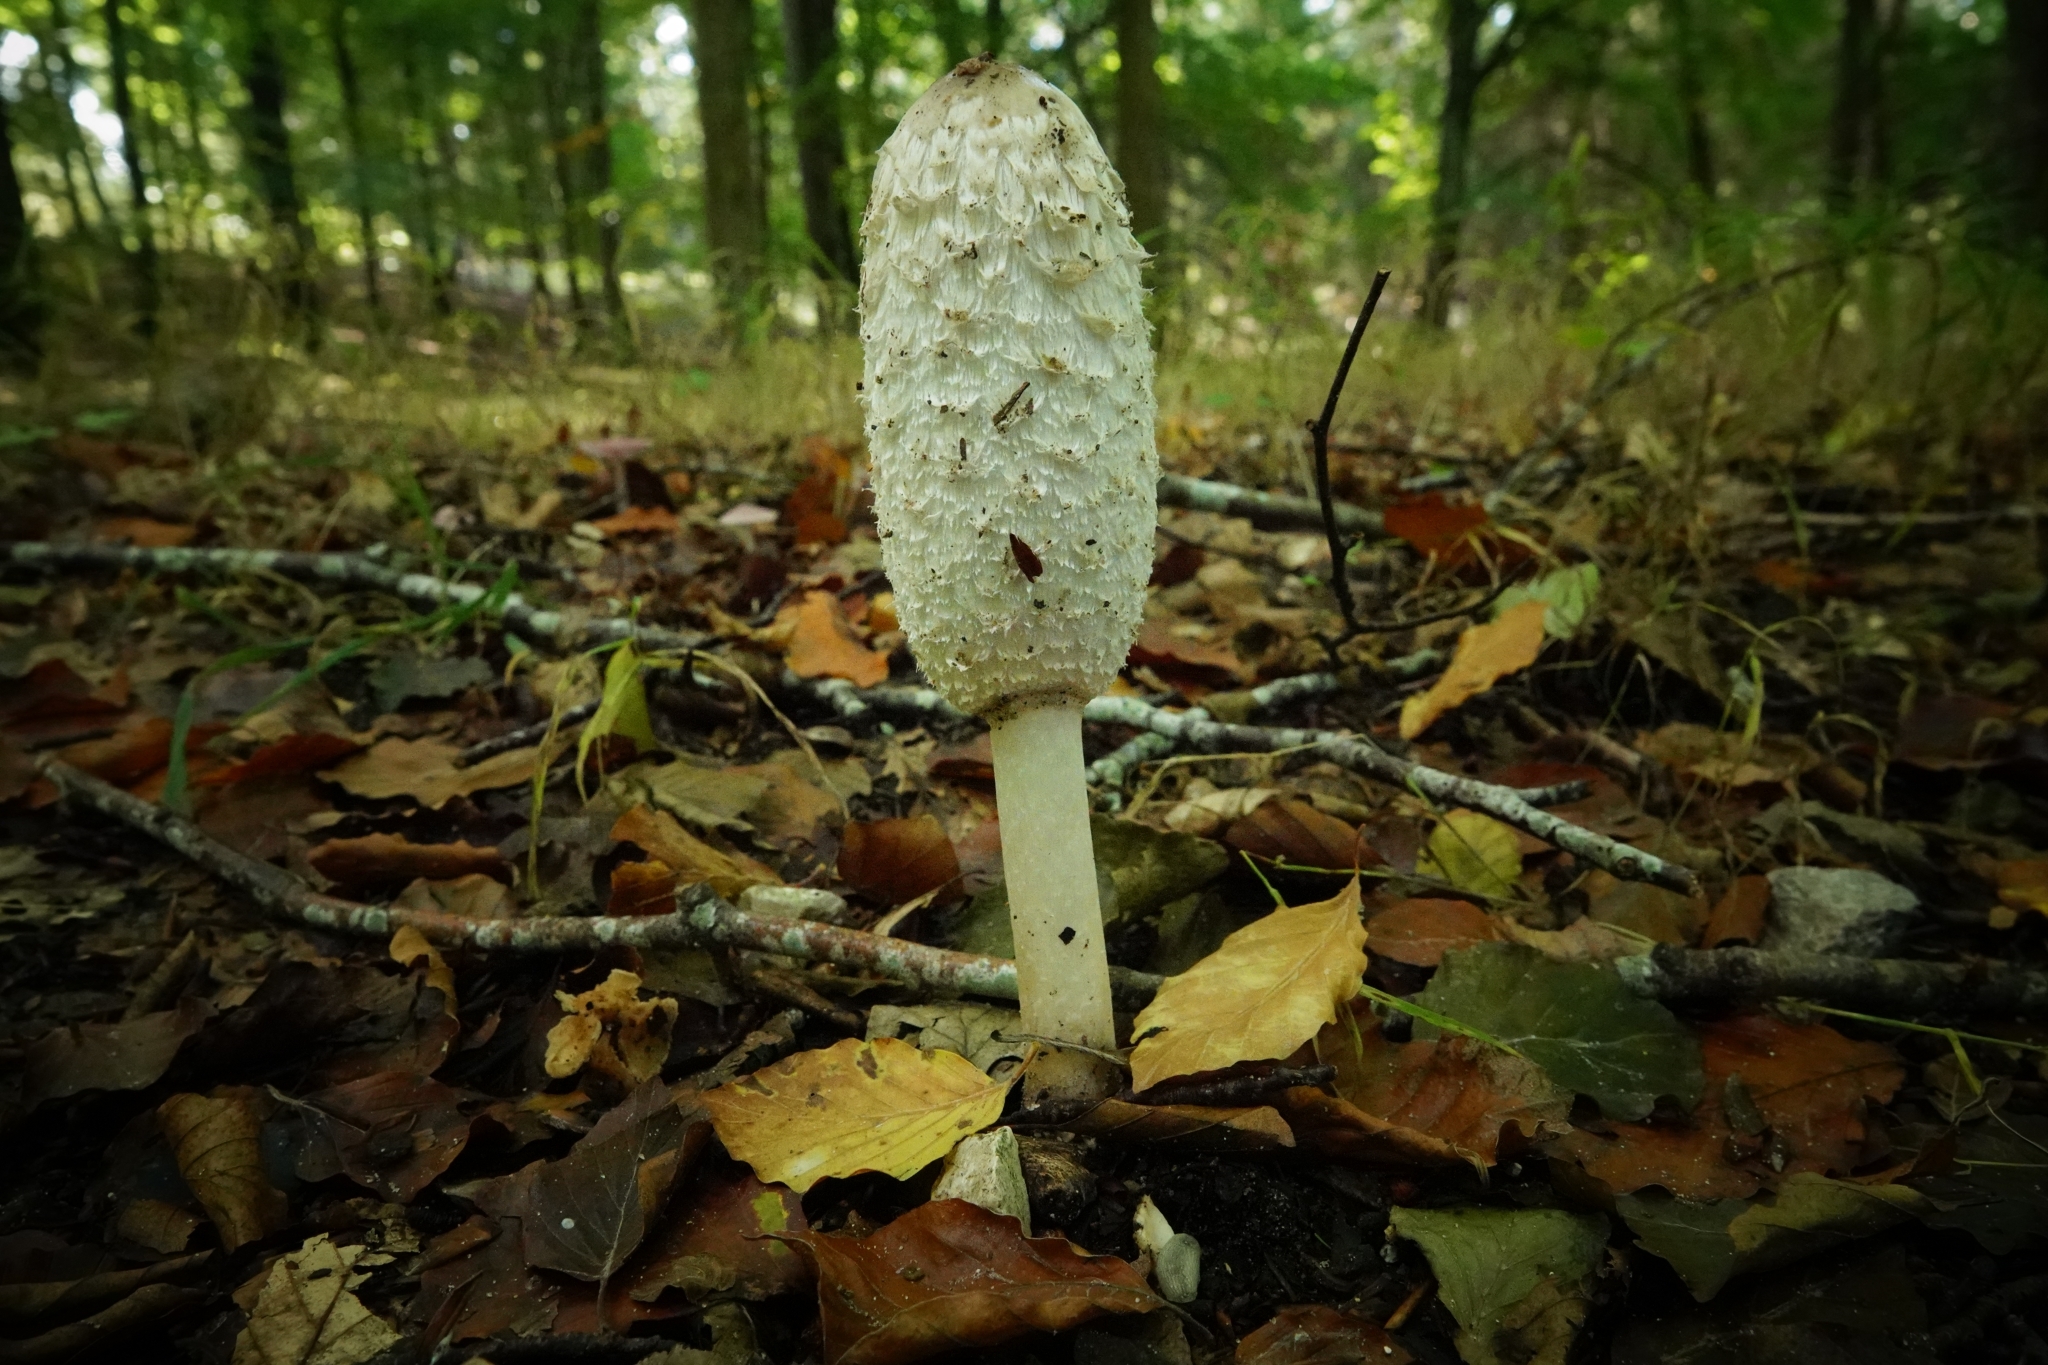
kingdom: Fungi
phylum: Basidiomycota
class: Agaricomycetes
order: Agaricales
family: Agaricaceae
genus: Coprinus
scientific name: Coprinus comatus
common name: Lawyer's wig
